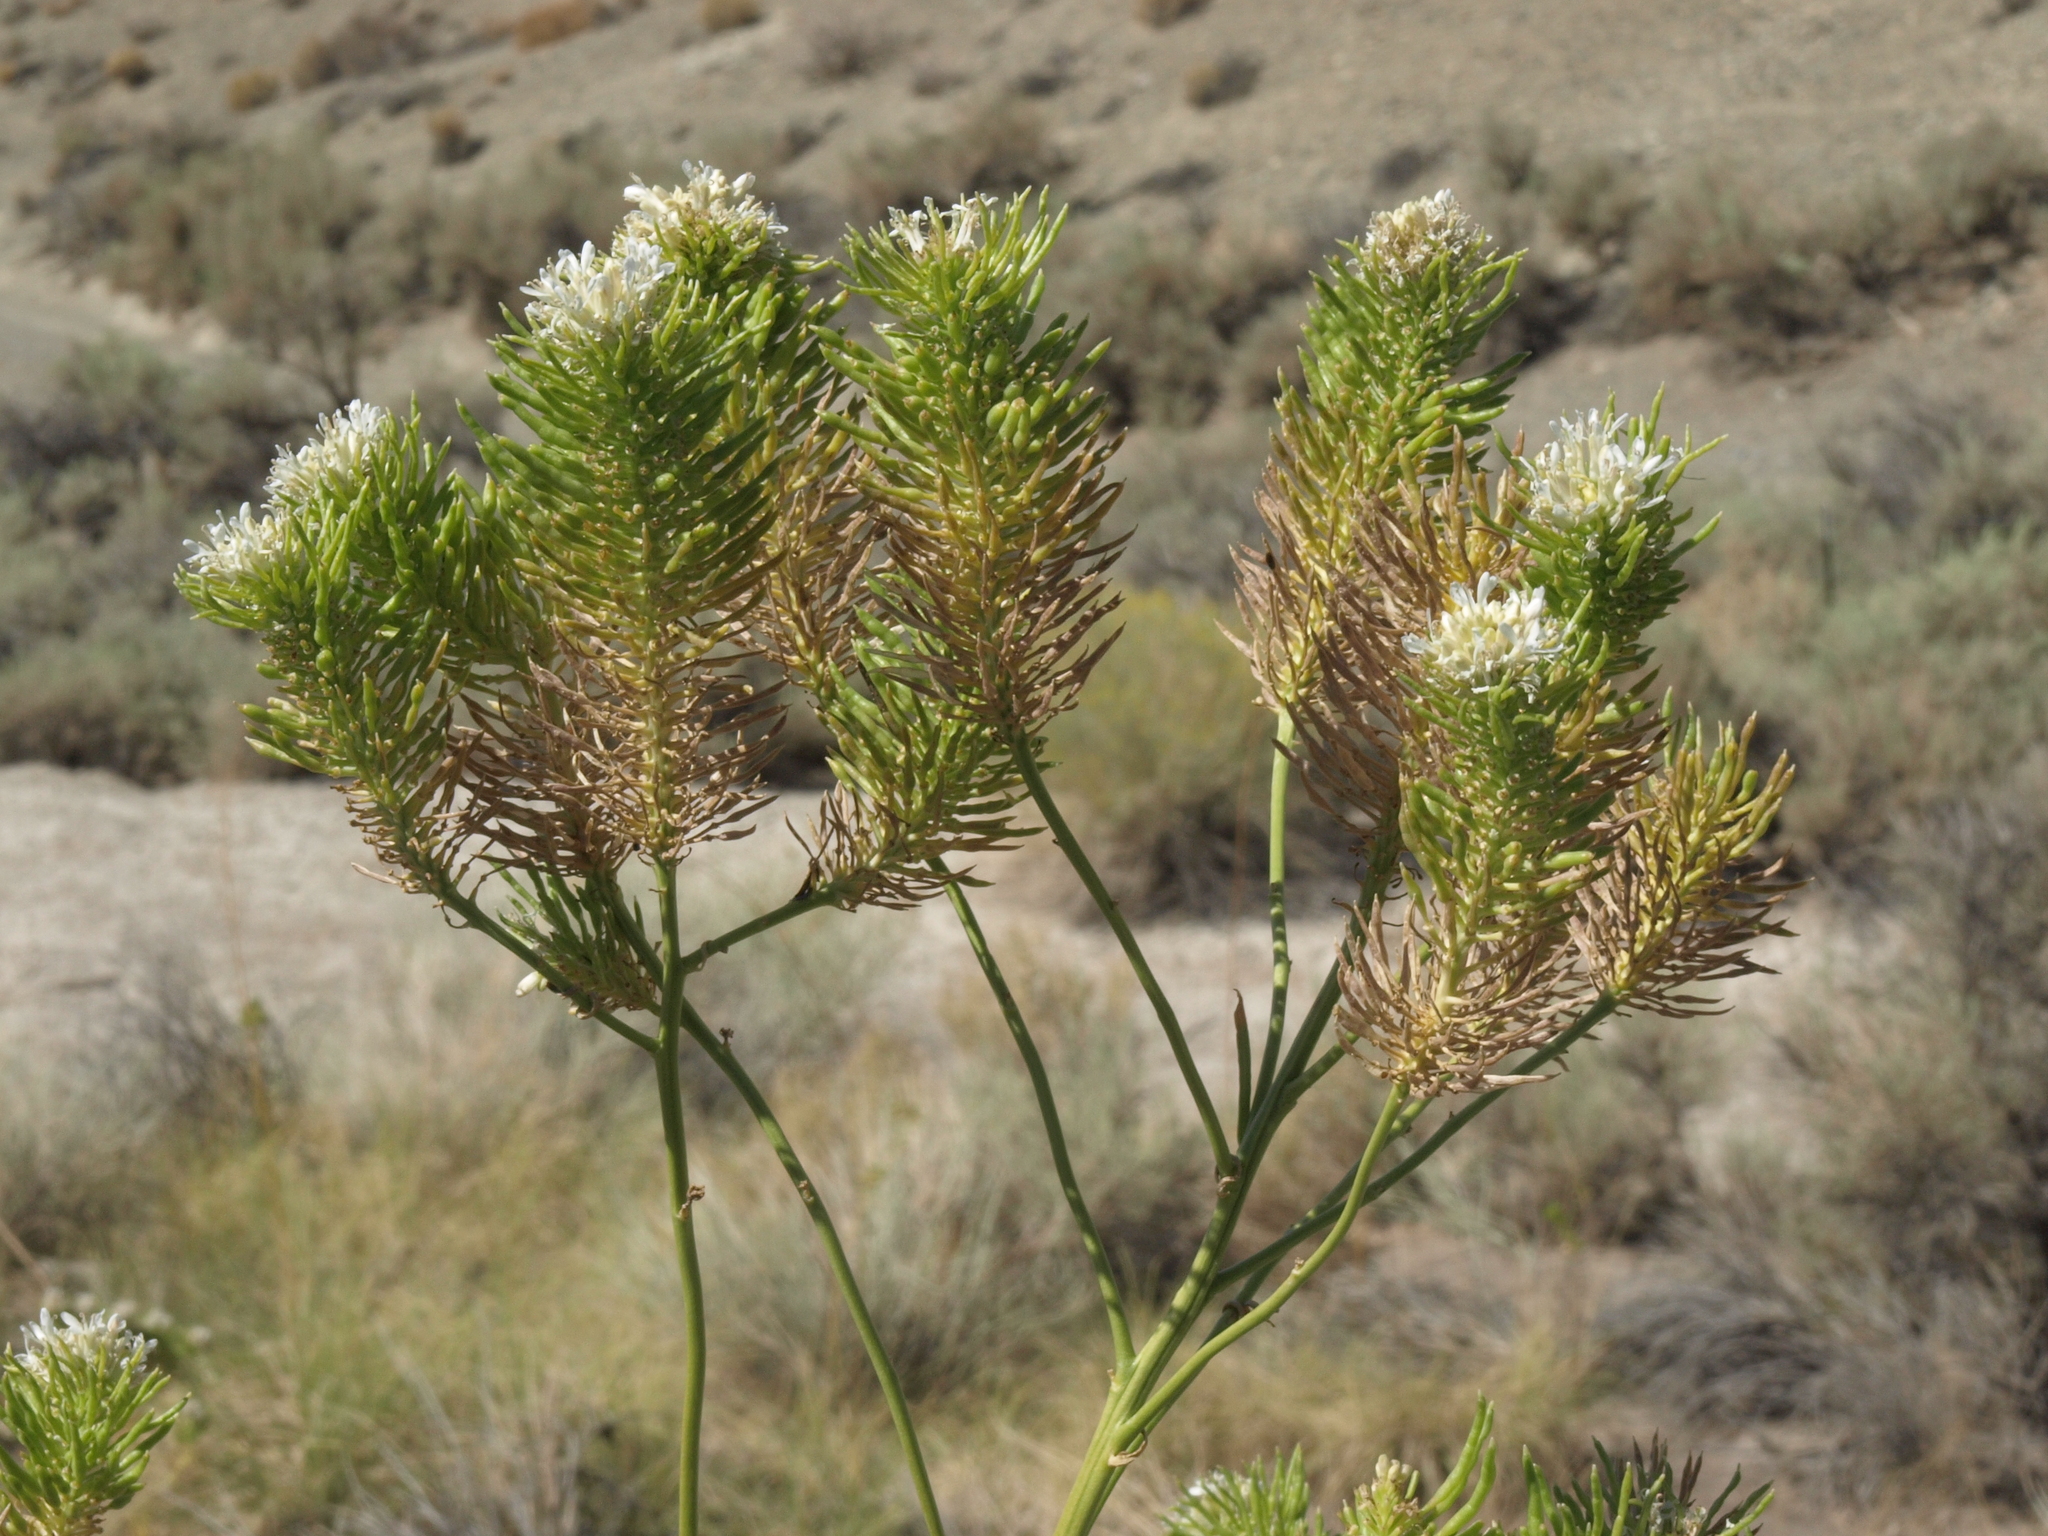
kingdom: Plantae
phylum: Tracheophyta
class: Magnoliopsida
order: Brassicales
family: Brassicaceae
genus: Thelypodium
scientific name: Thelypodium integrifolium
